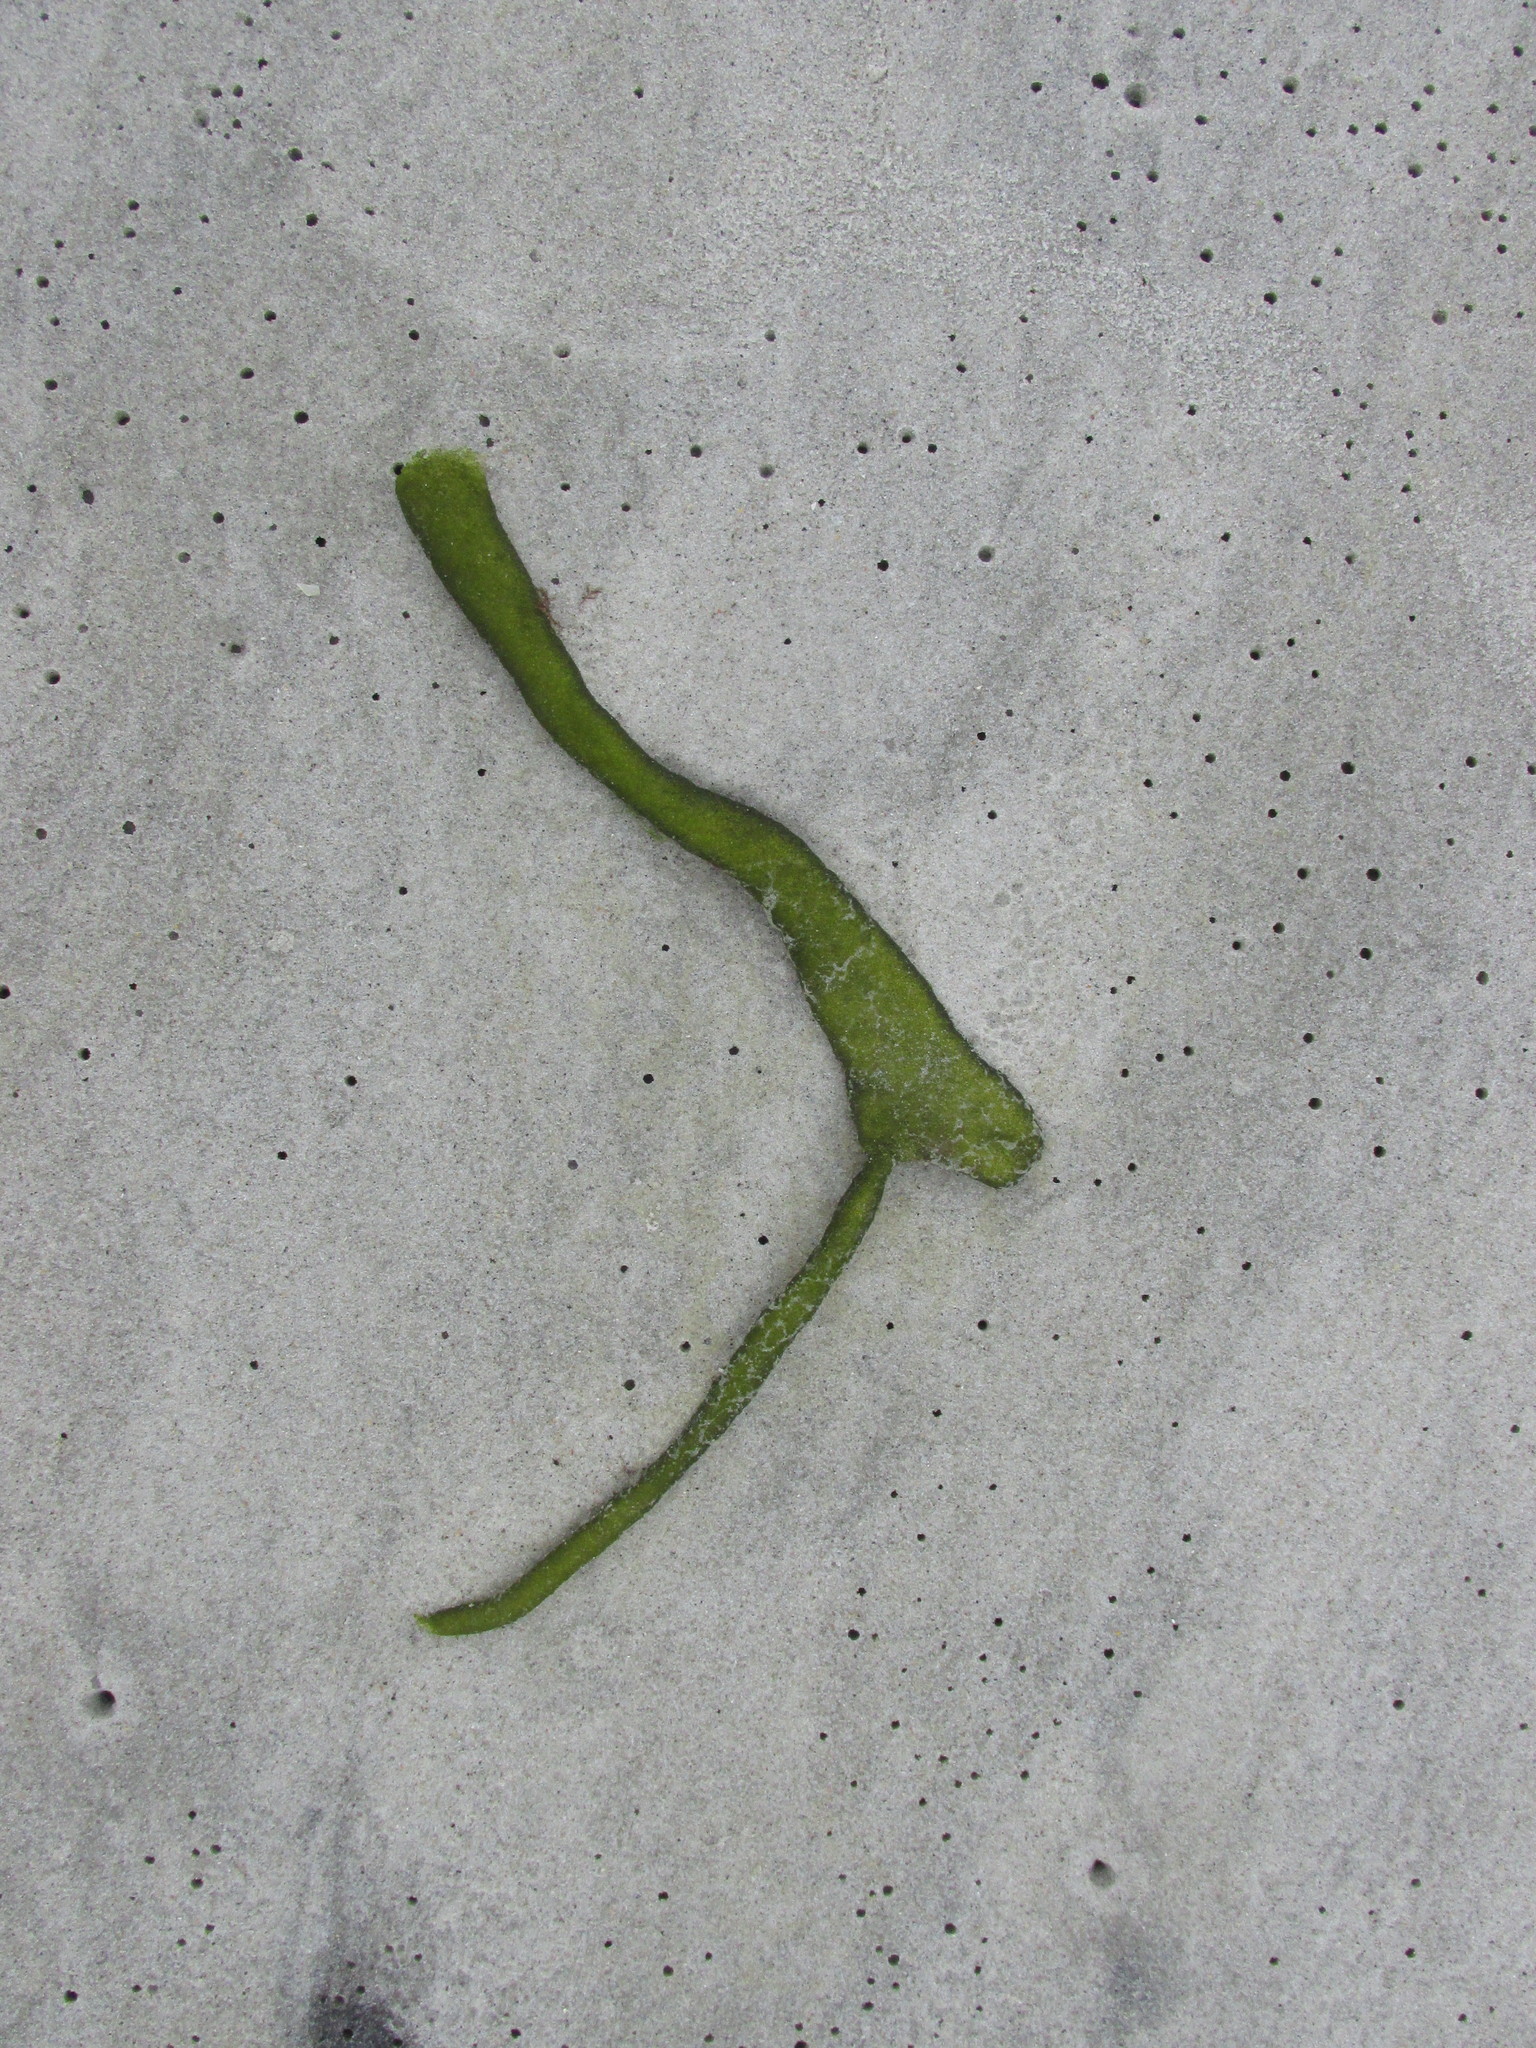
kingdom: Plantae
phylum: Chlorophyta
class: Ulvophyceae
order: Bryopsidales
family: Codiaceae
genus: Codium
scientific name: Codium fragile
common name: Dead man's fingers
